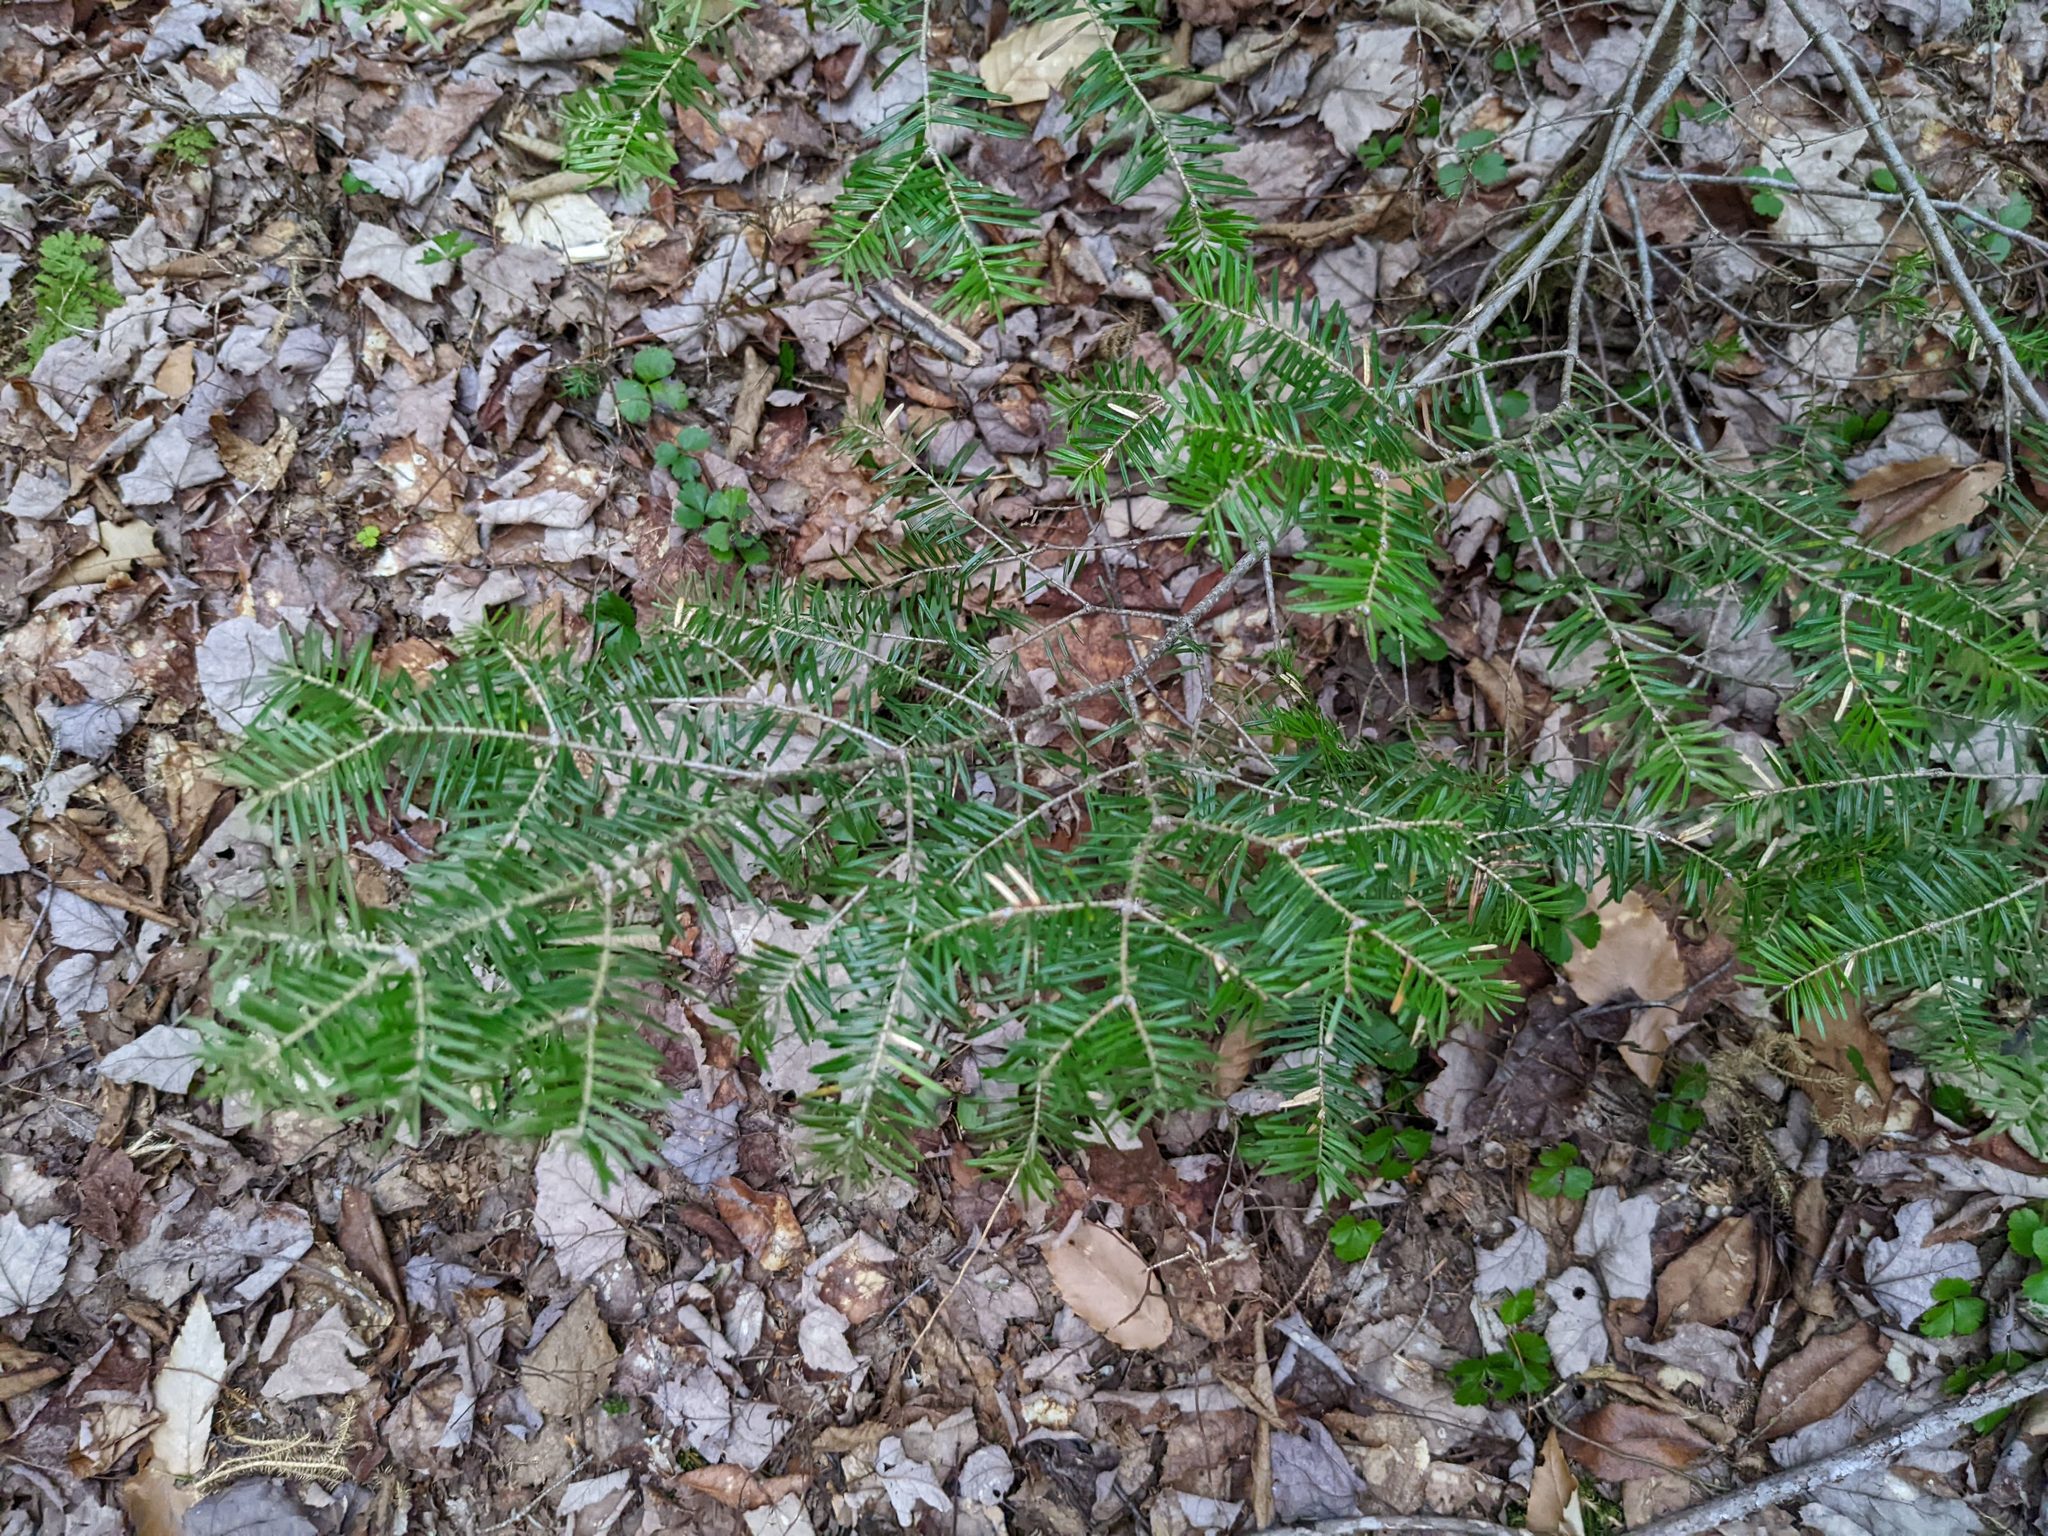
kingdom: Plantae
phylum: Tracheophyta
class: Pinopsida
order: Pinales
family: Pinaceae
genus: Abies
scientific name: Abies balsamea
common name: Balsam fir
